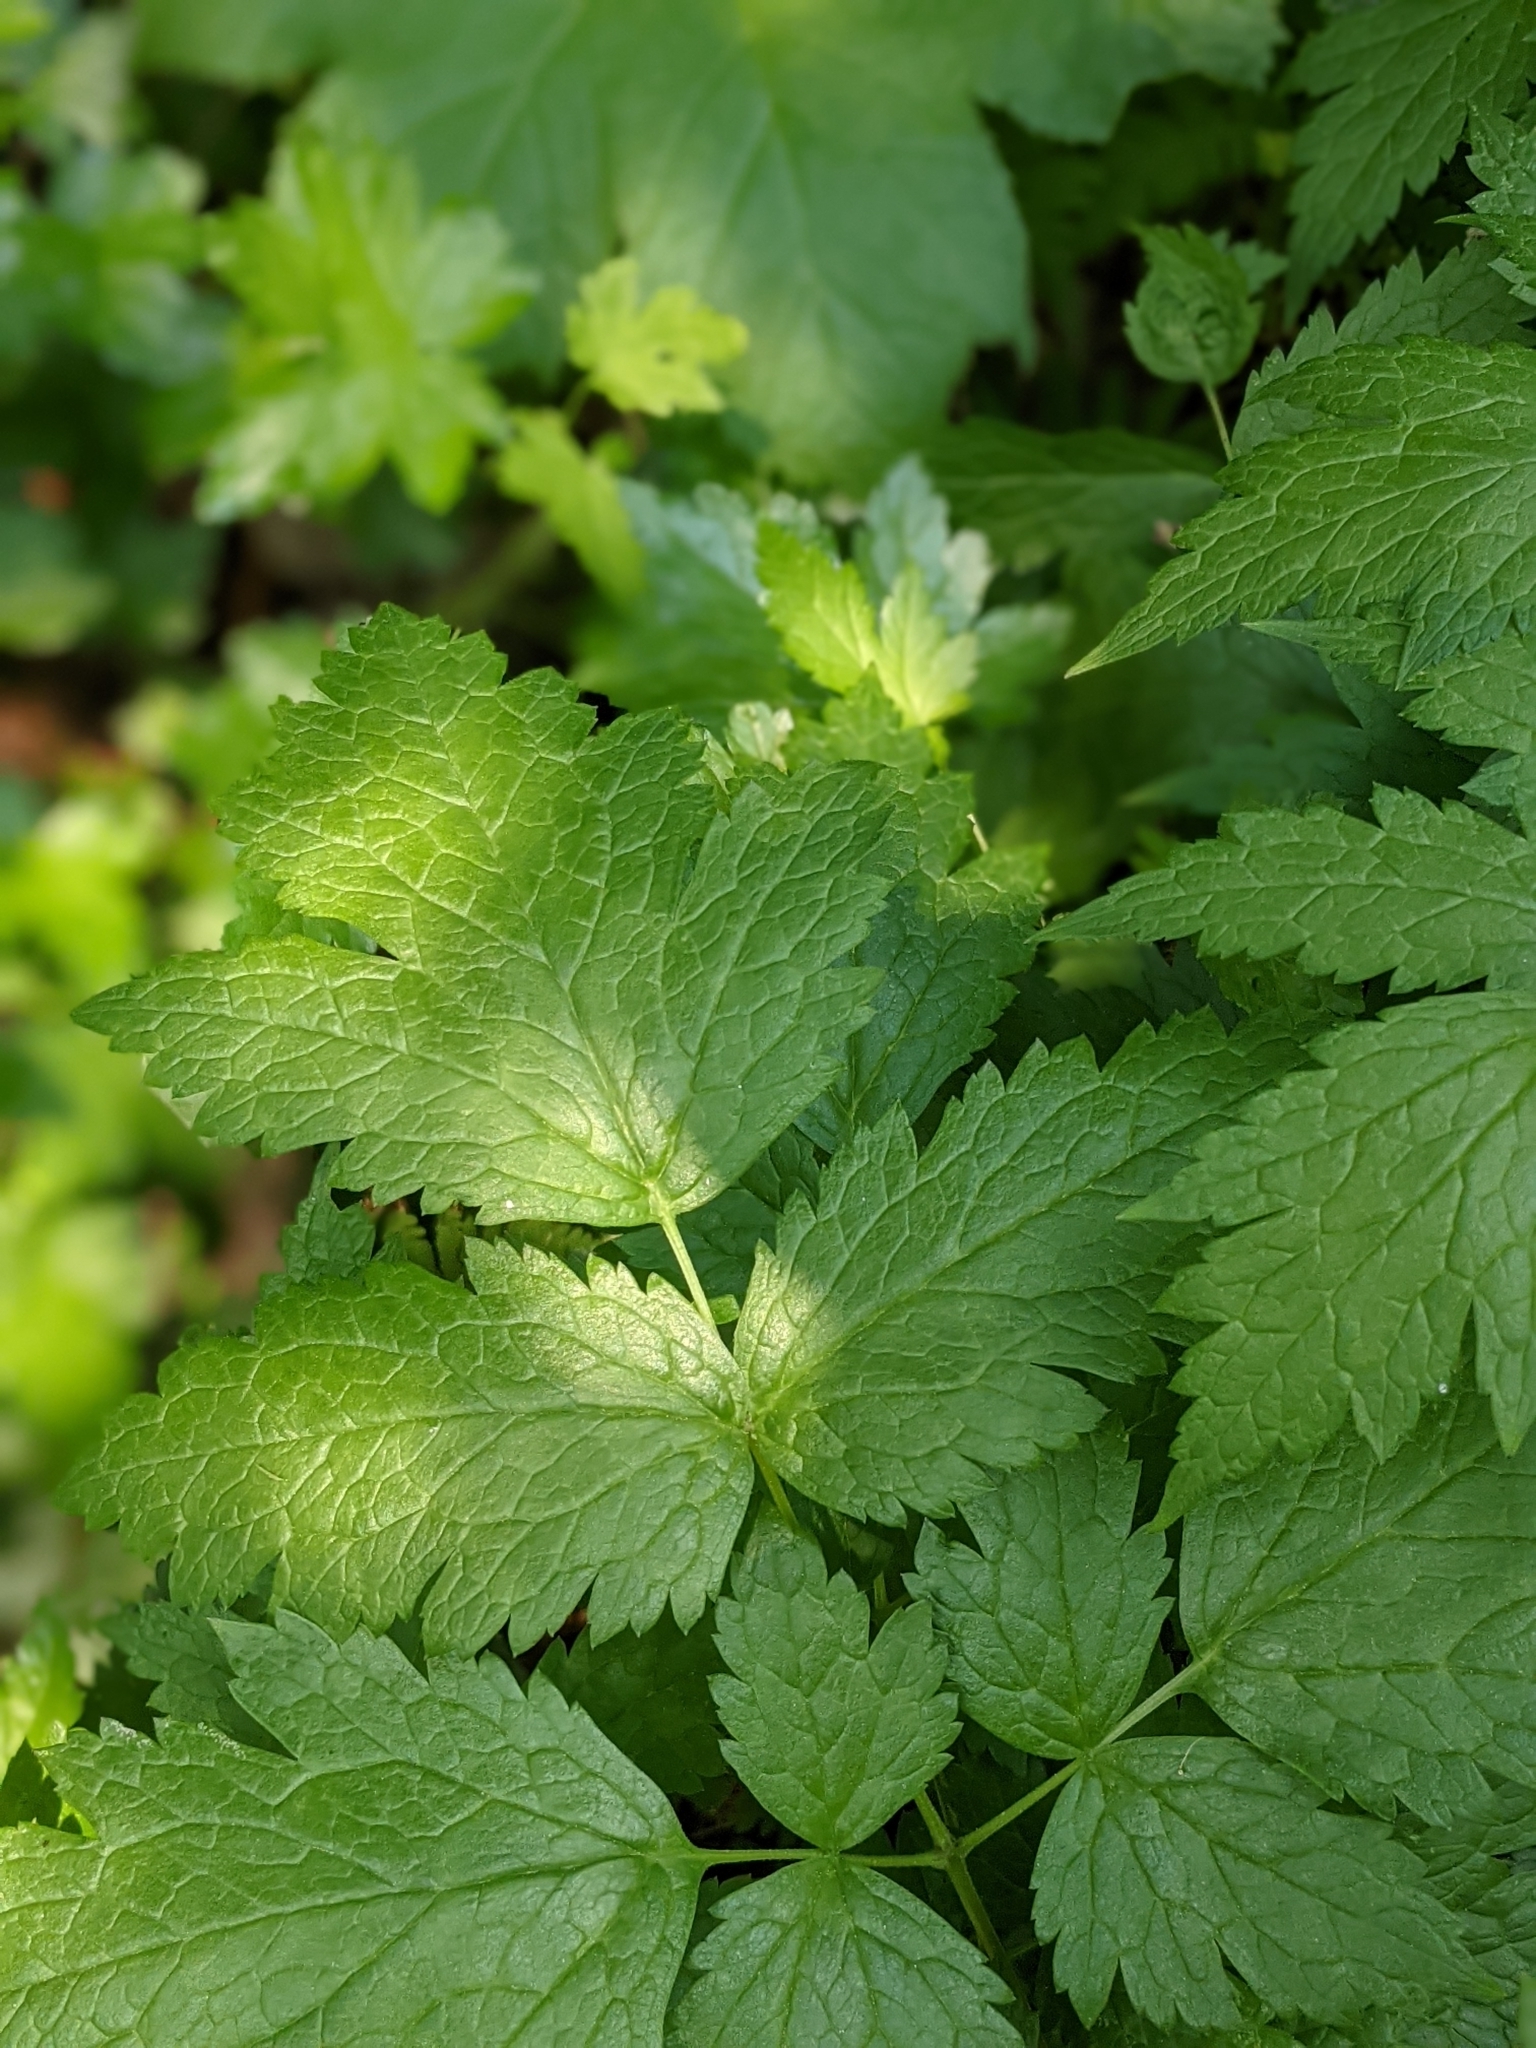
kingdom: Plantae
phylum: Tracheophyta
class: Magnoliopsida
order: Ranunculales
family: Ranunculaceae
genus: Actaea
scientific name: Actaea rubra
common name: Red baneberry
